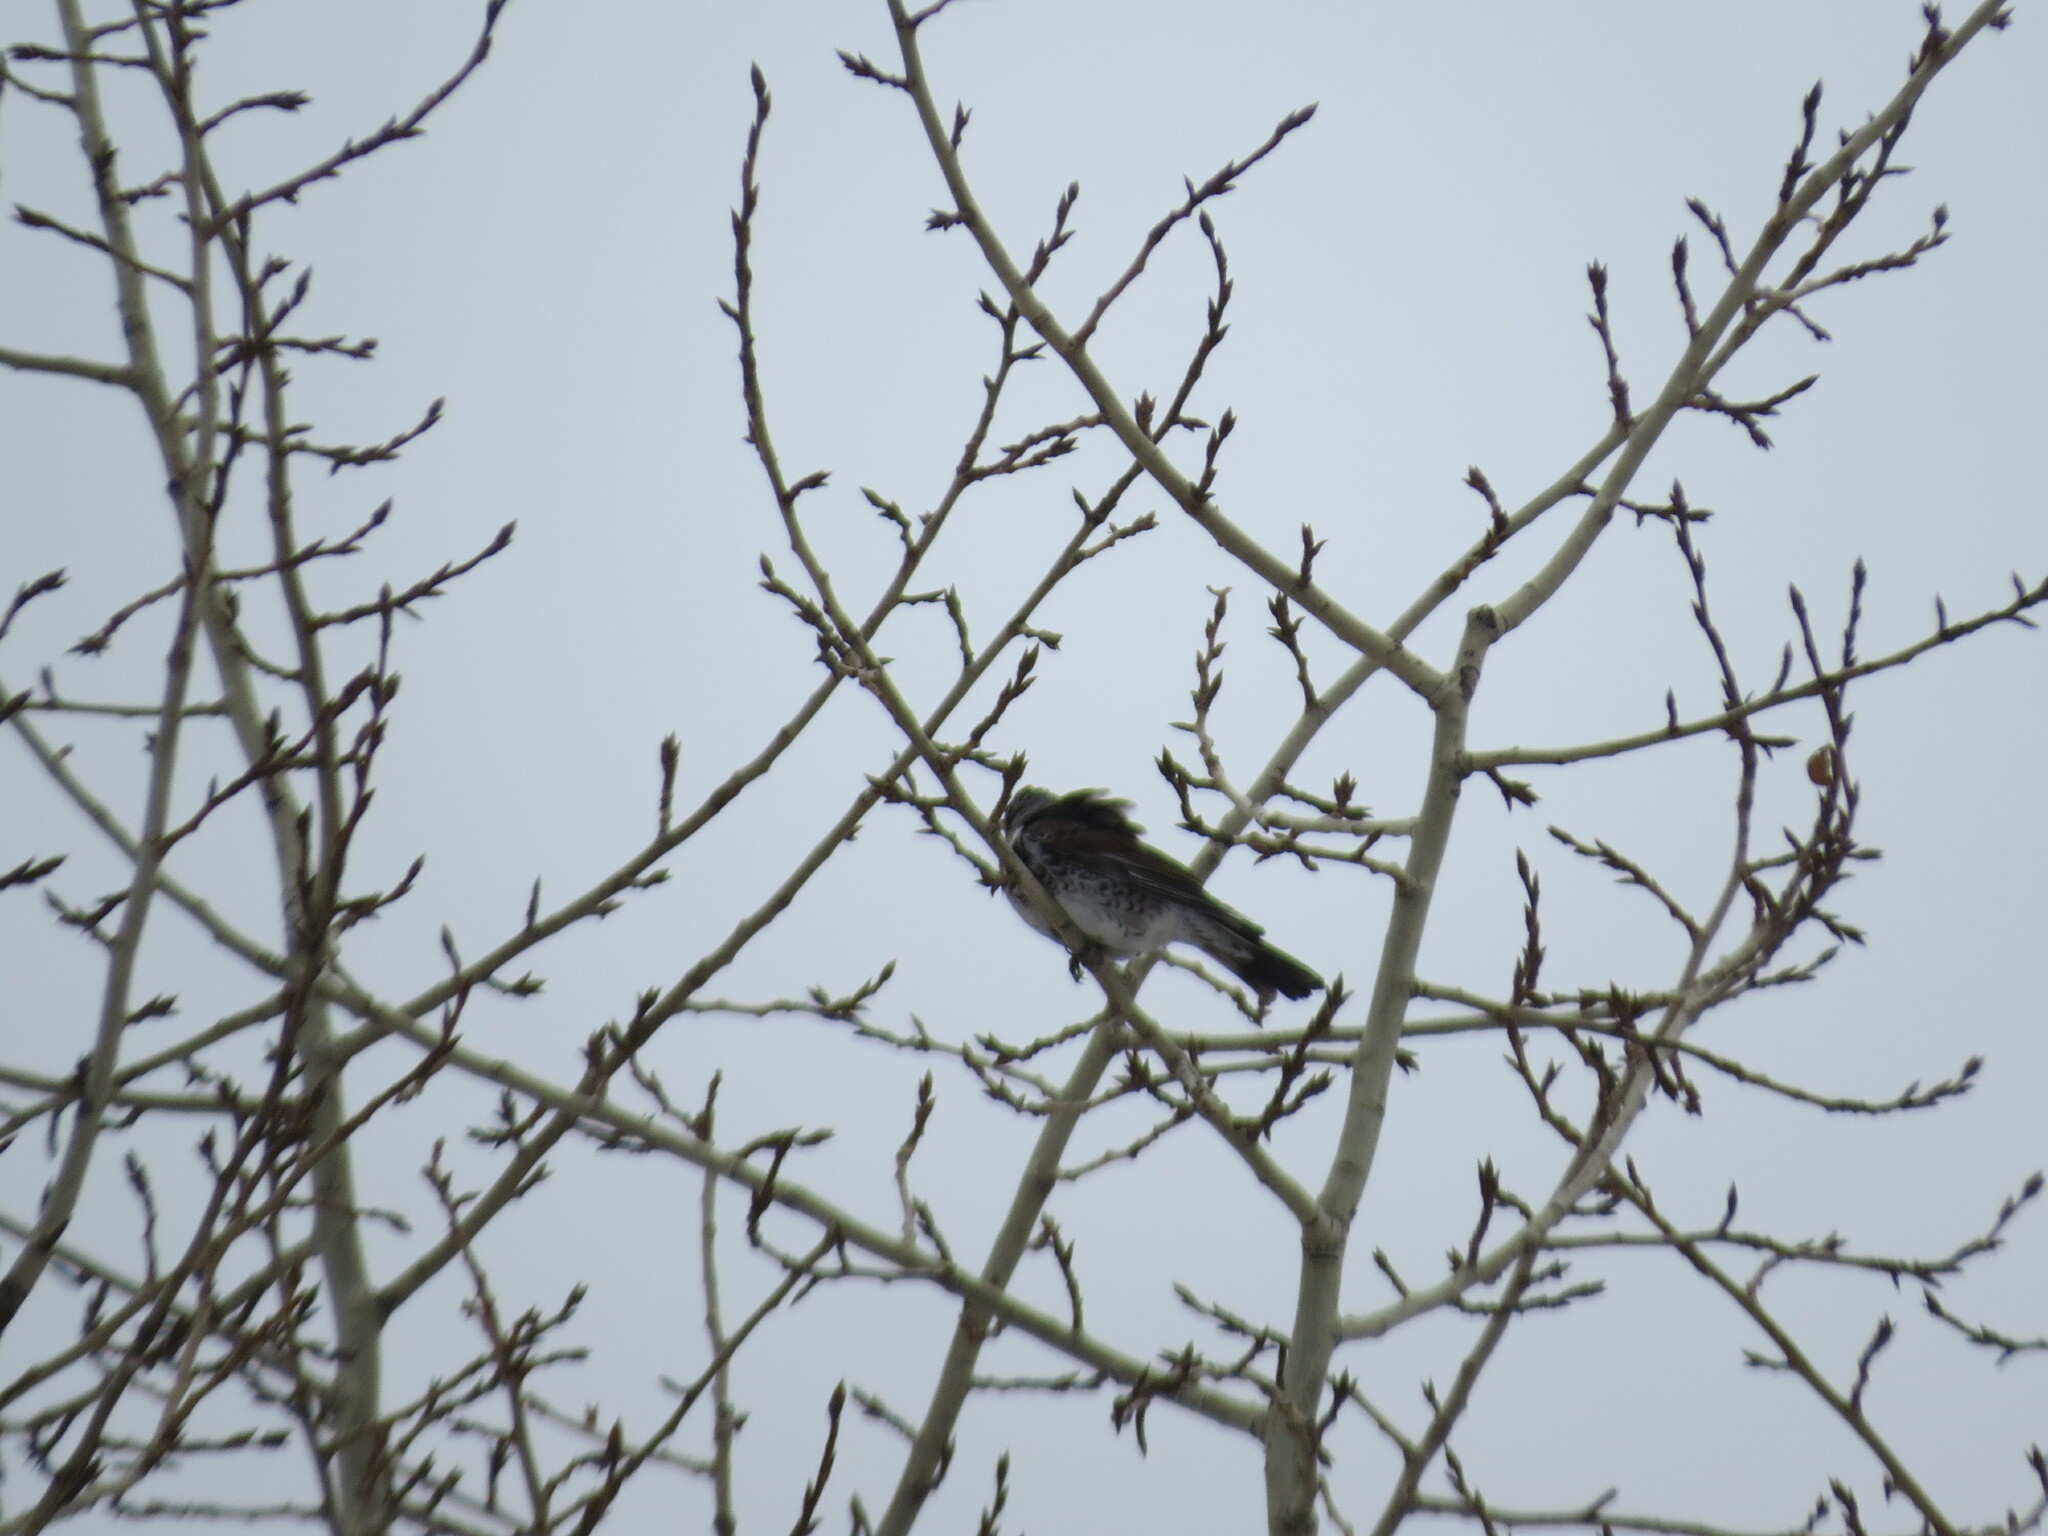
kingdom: Animalia
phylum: Chordata
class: Aves
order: Passeriformes
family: Turdidae
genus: Turdus
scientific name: Turdus pilaris
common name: Fieldfare
